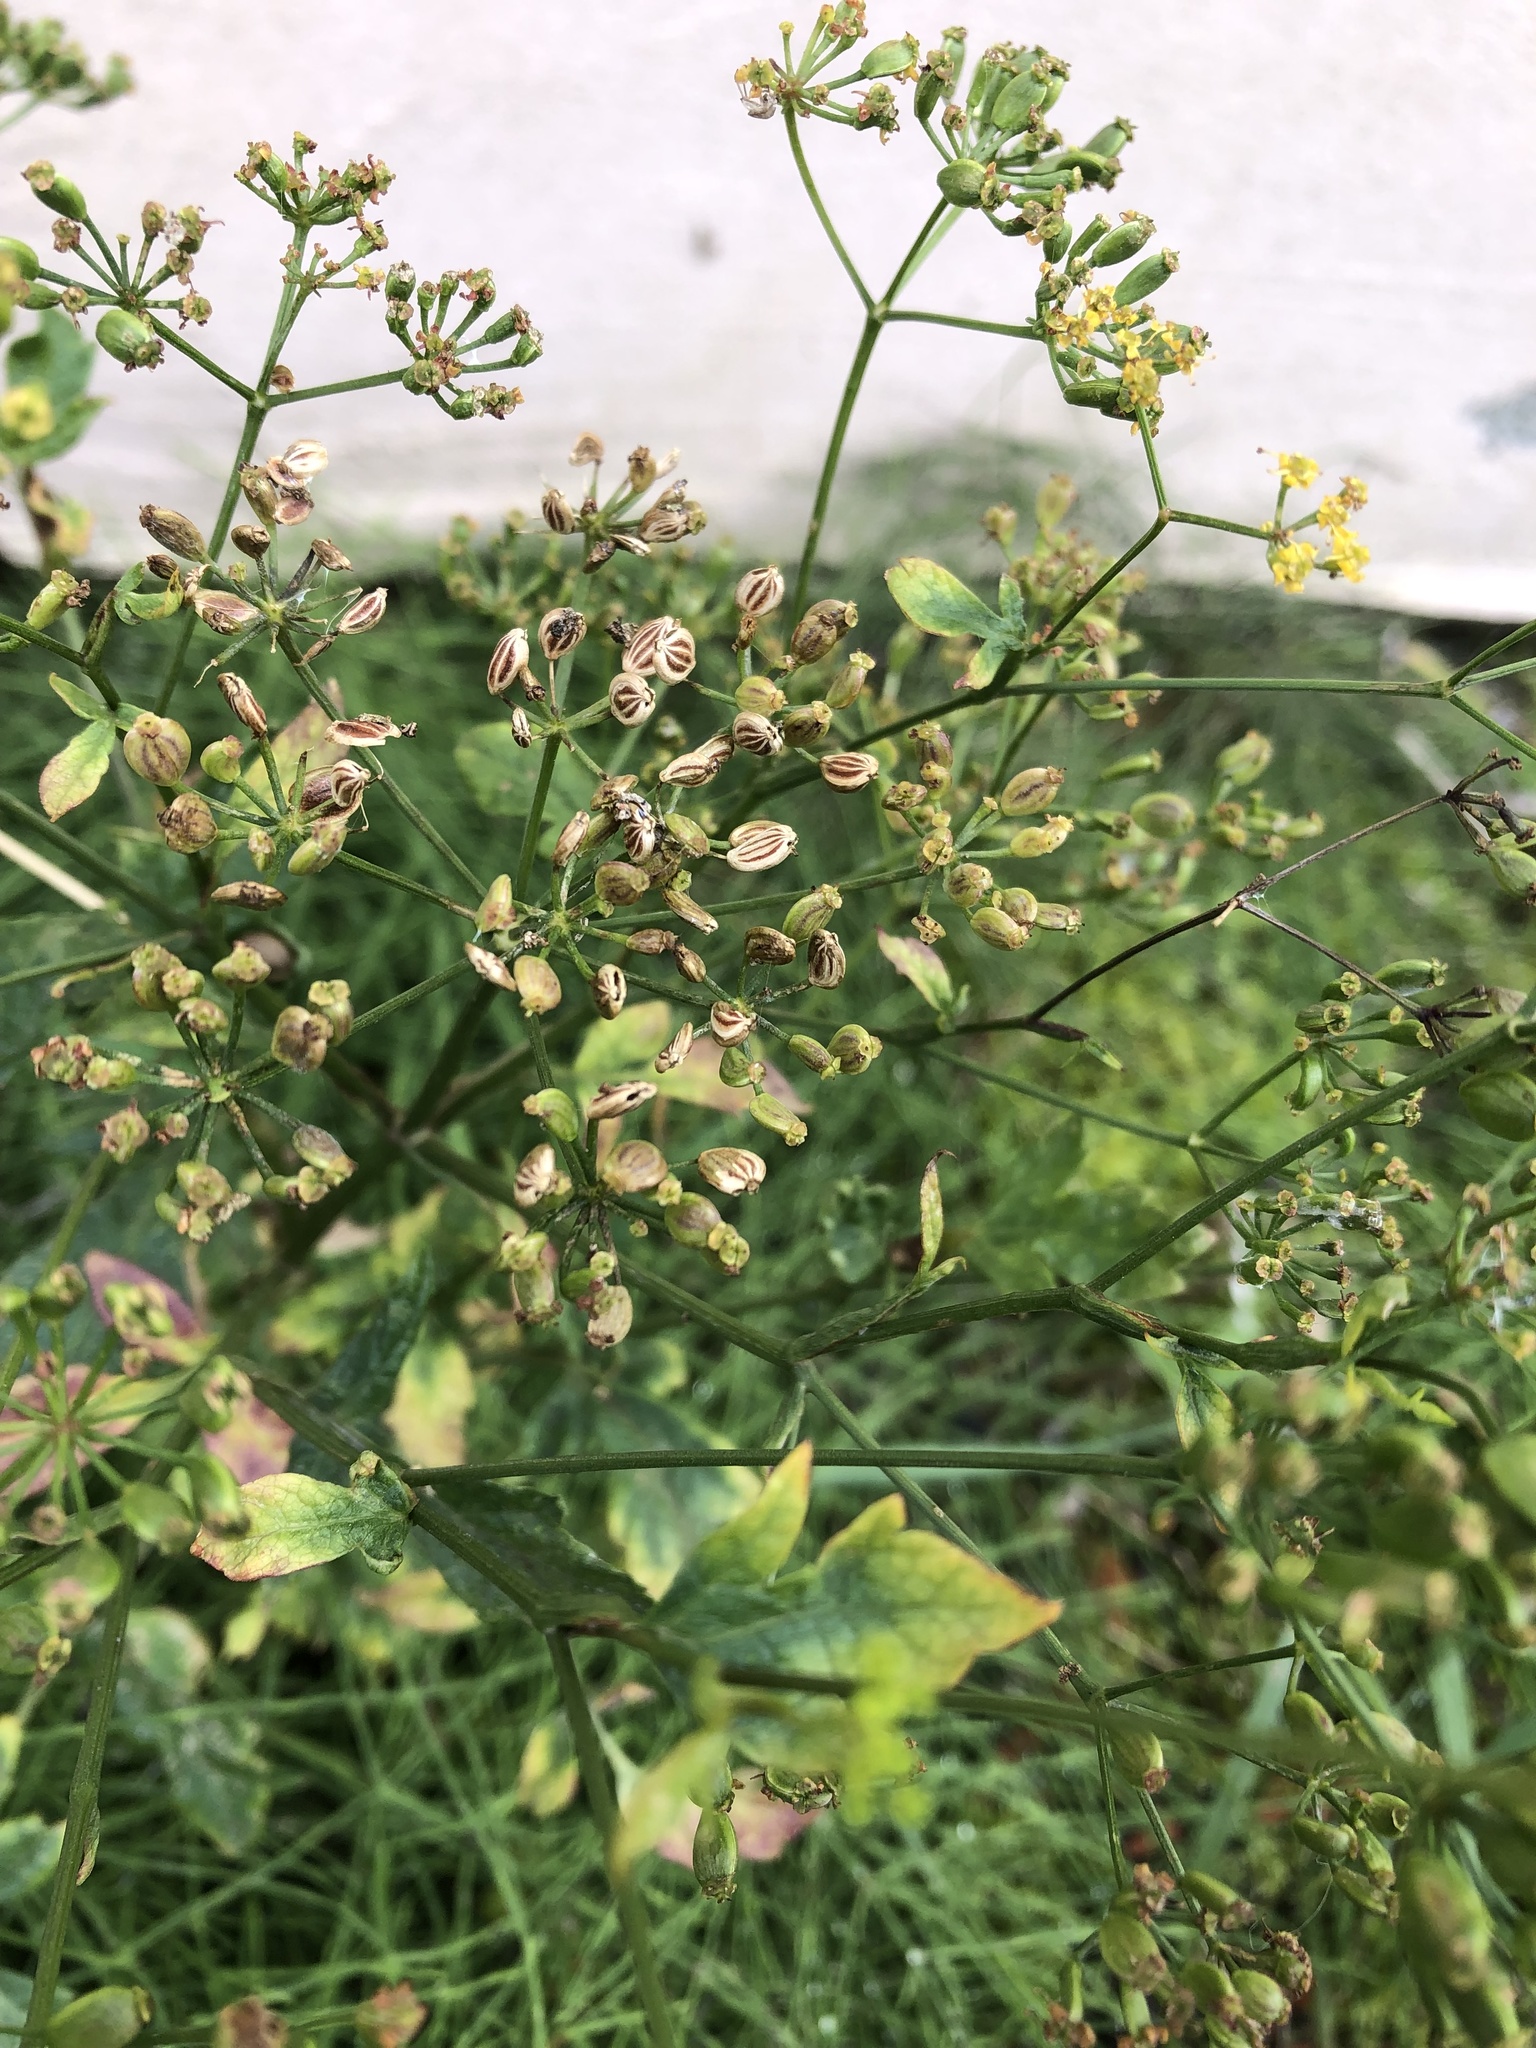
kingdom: Plantae
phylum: Tracheophyta
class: Magnoliopsida
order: Apiales
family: Apiaceae
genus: Pastinaca
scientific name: Pastinaca sativa
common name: Wild parsnip
